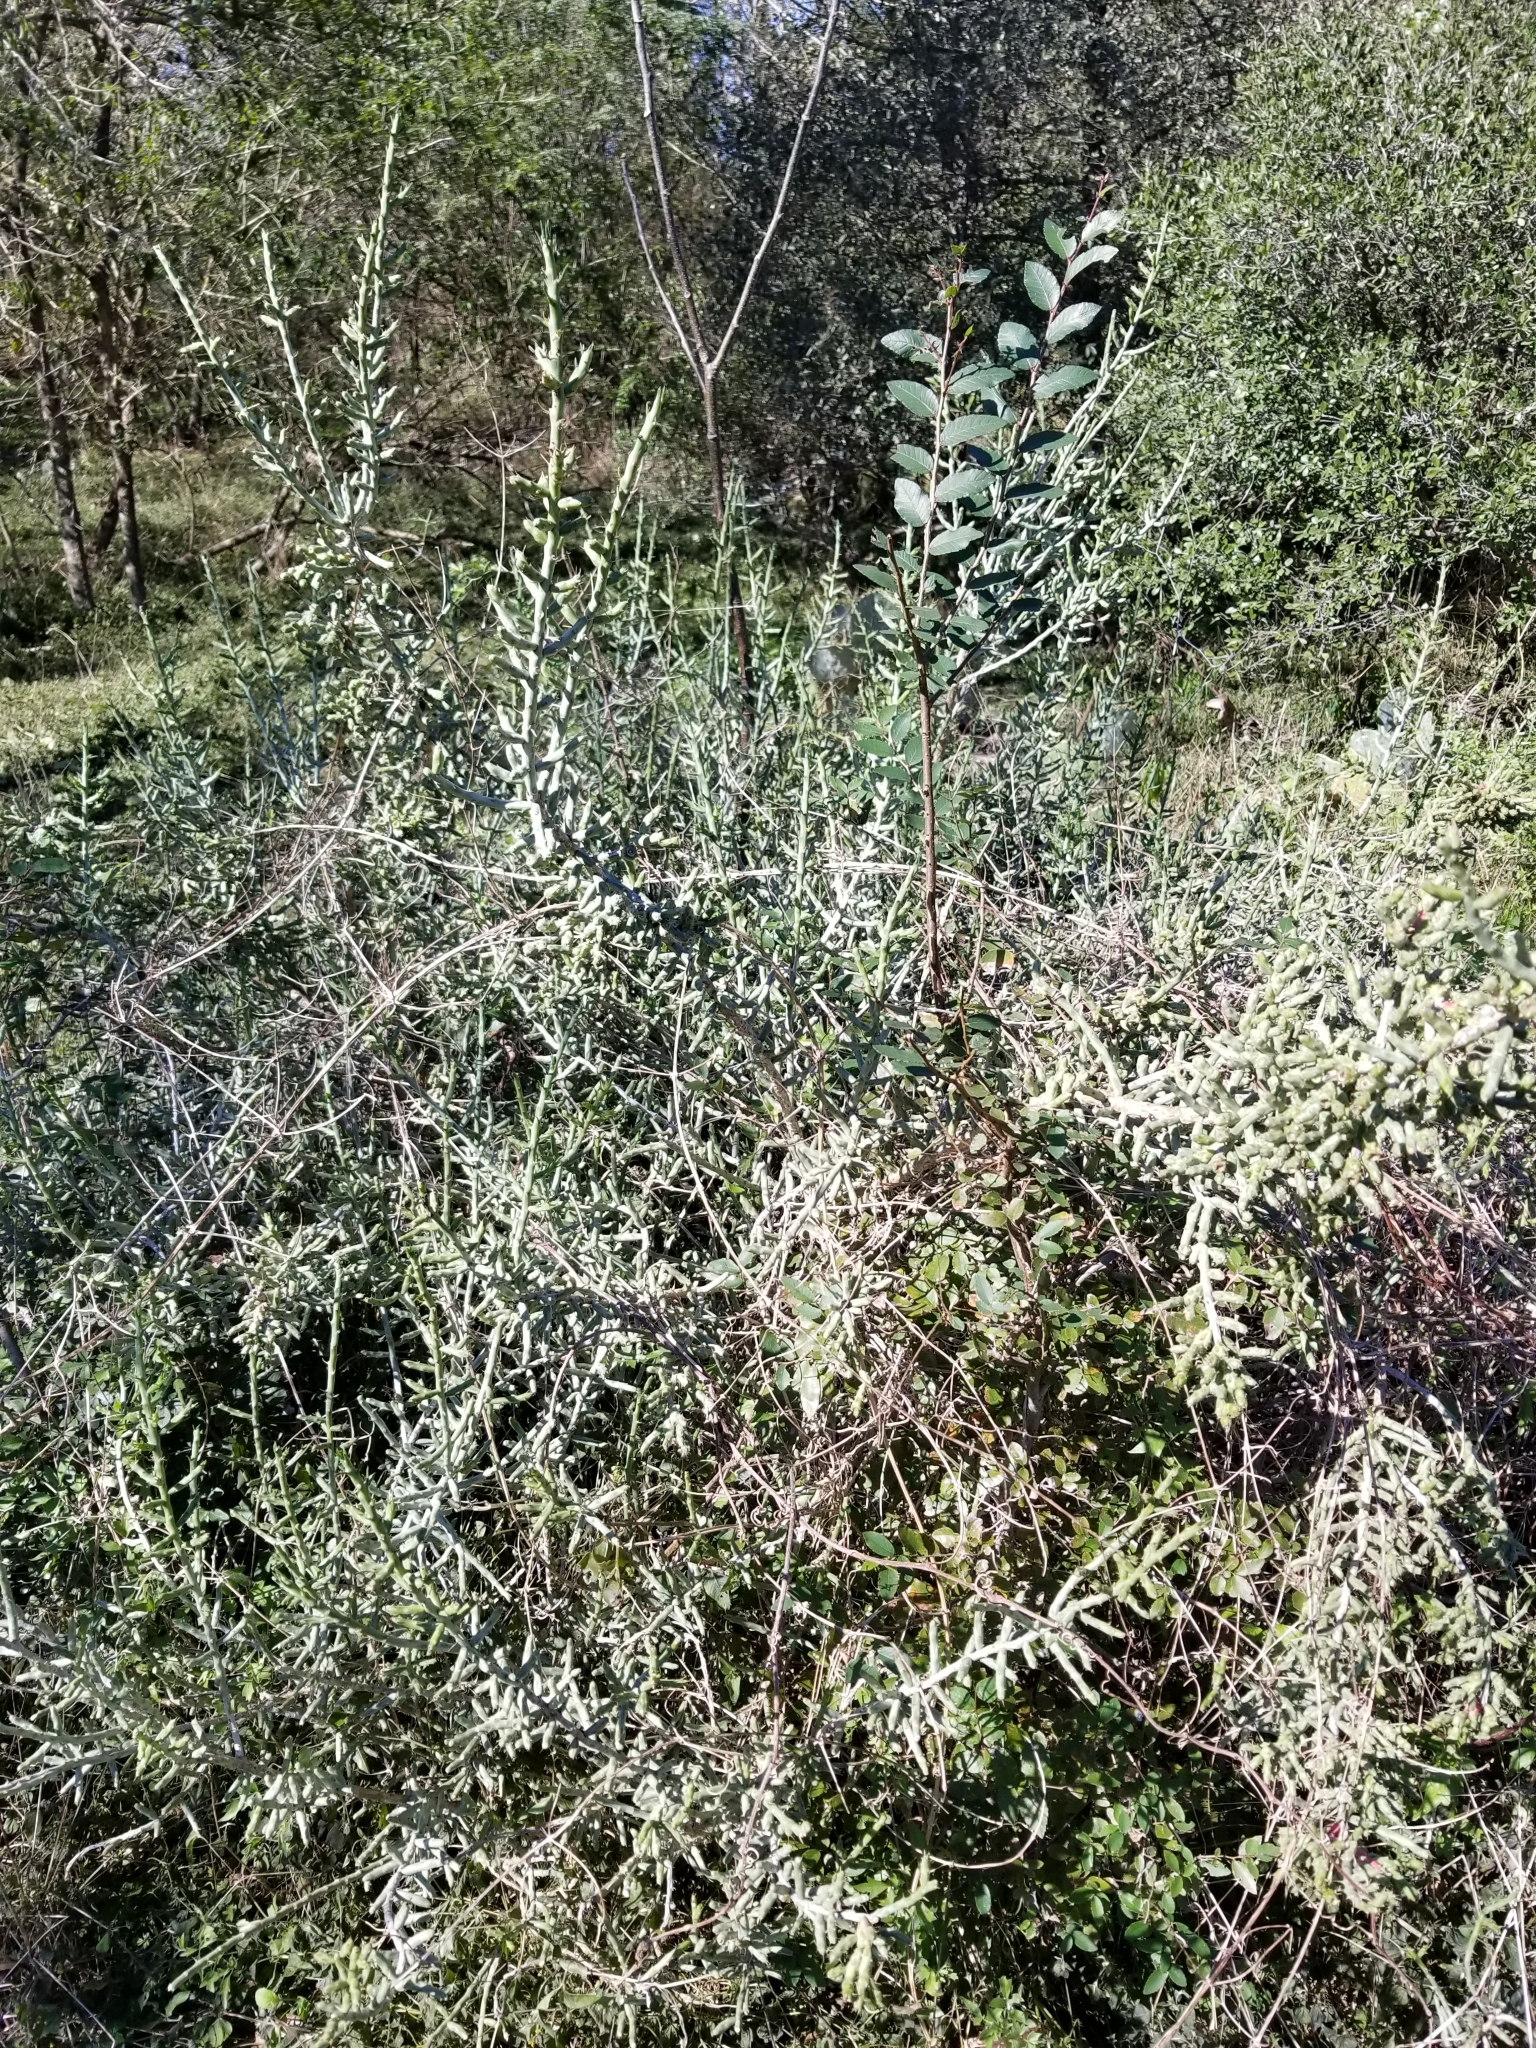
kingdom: Plantae
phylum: Tracheophyta
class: Magnoliopsida
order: Caryophyllales
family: Cactaceae
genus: Cylindropuntia
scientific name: Cylindropuntia leptocaulis
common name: Christmas cactus
